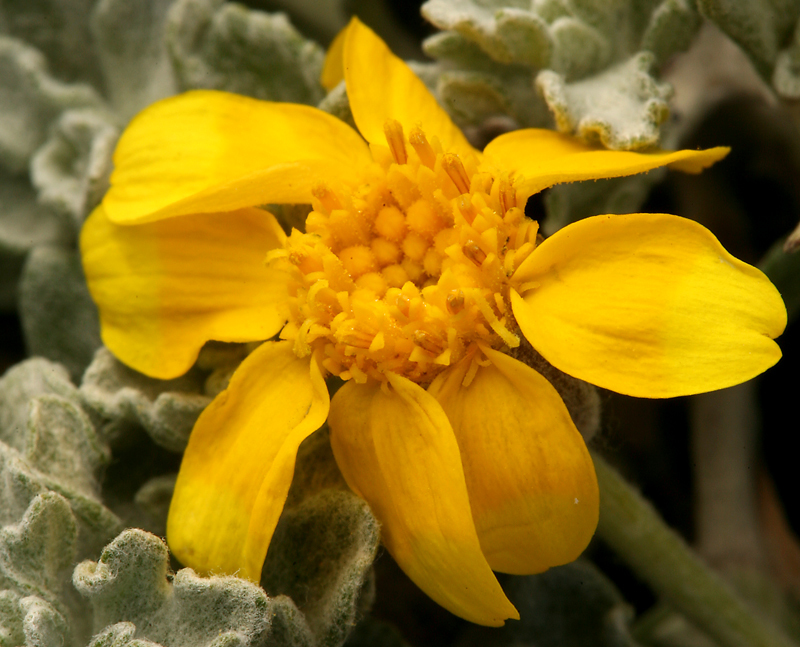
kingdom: Plantae
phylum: Tracheophyta
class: Magnoliopsida
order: Asterales
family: Asteraceae
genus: Eriophyllum
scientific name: Eriophyllum lanatum
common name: Common woolly-sunflower
